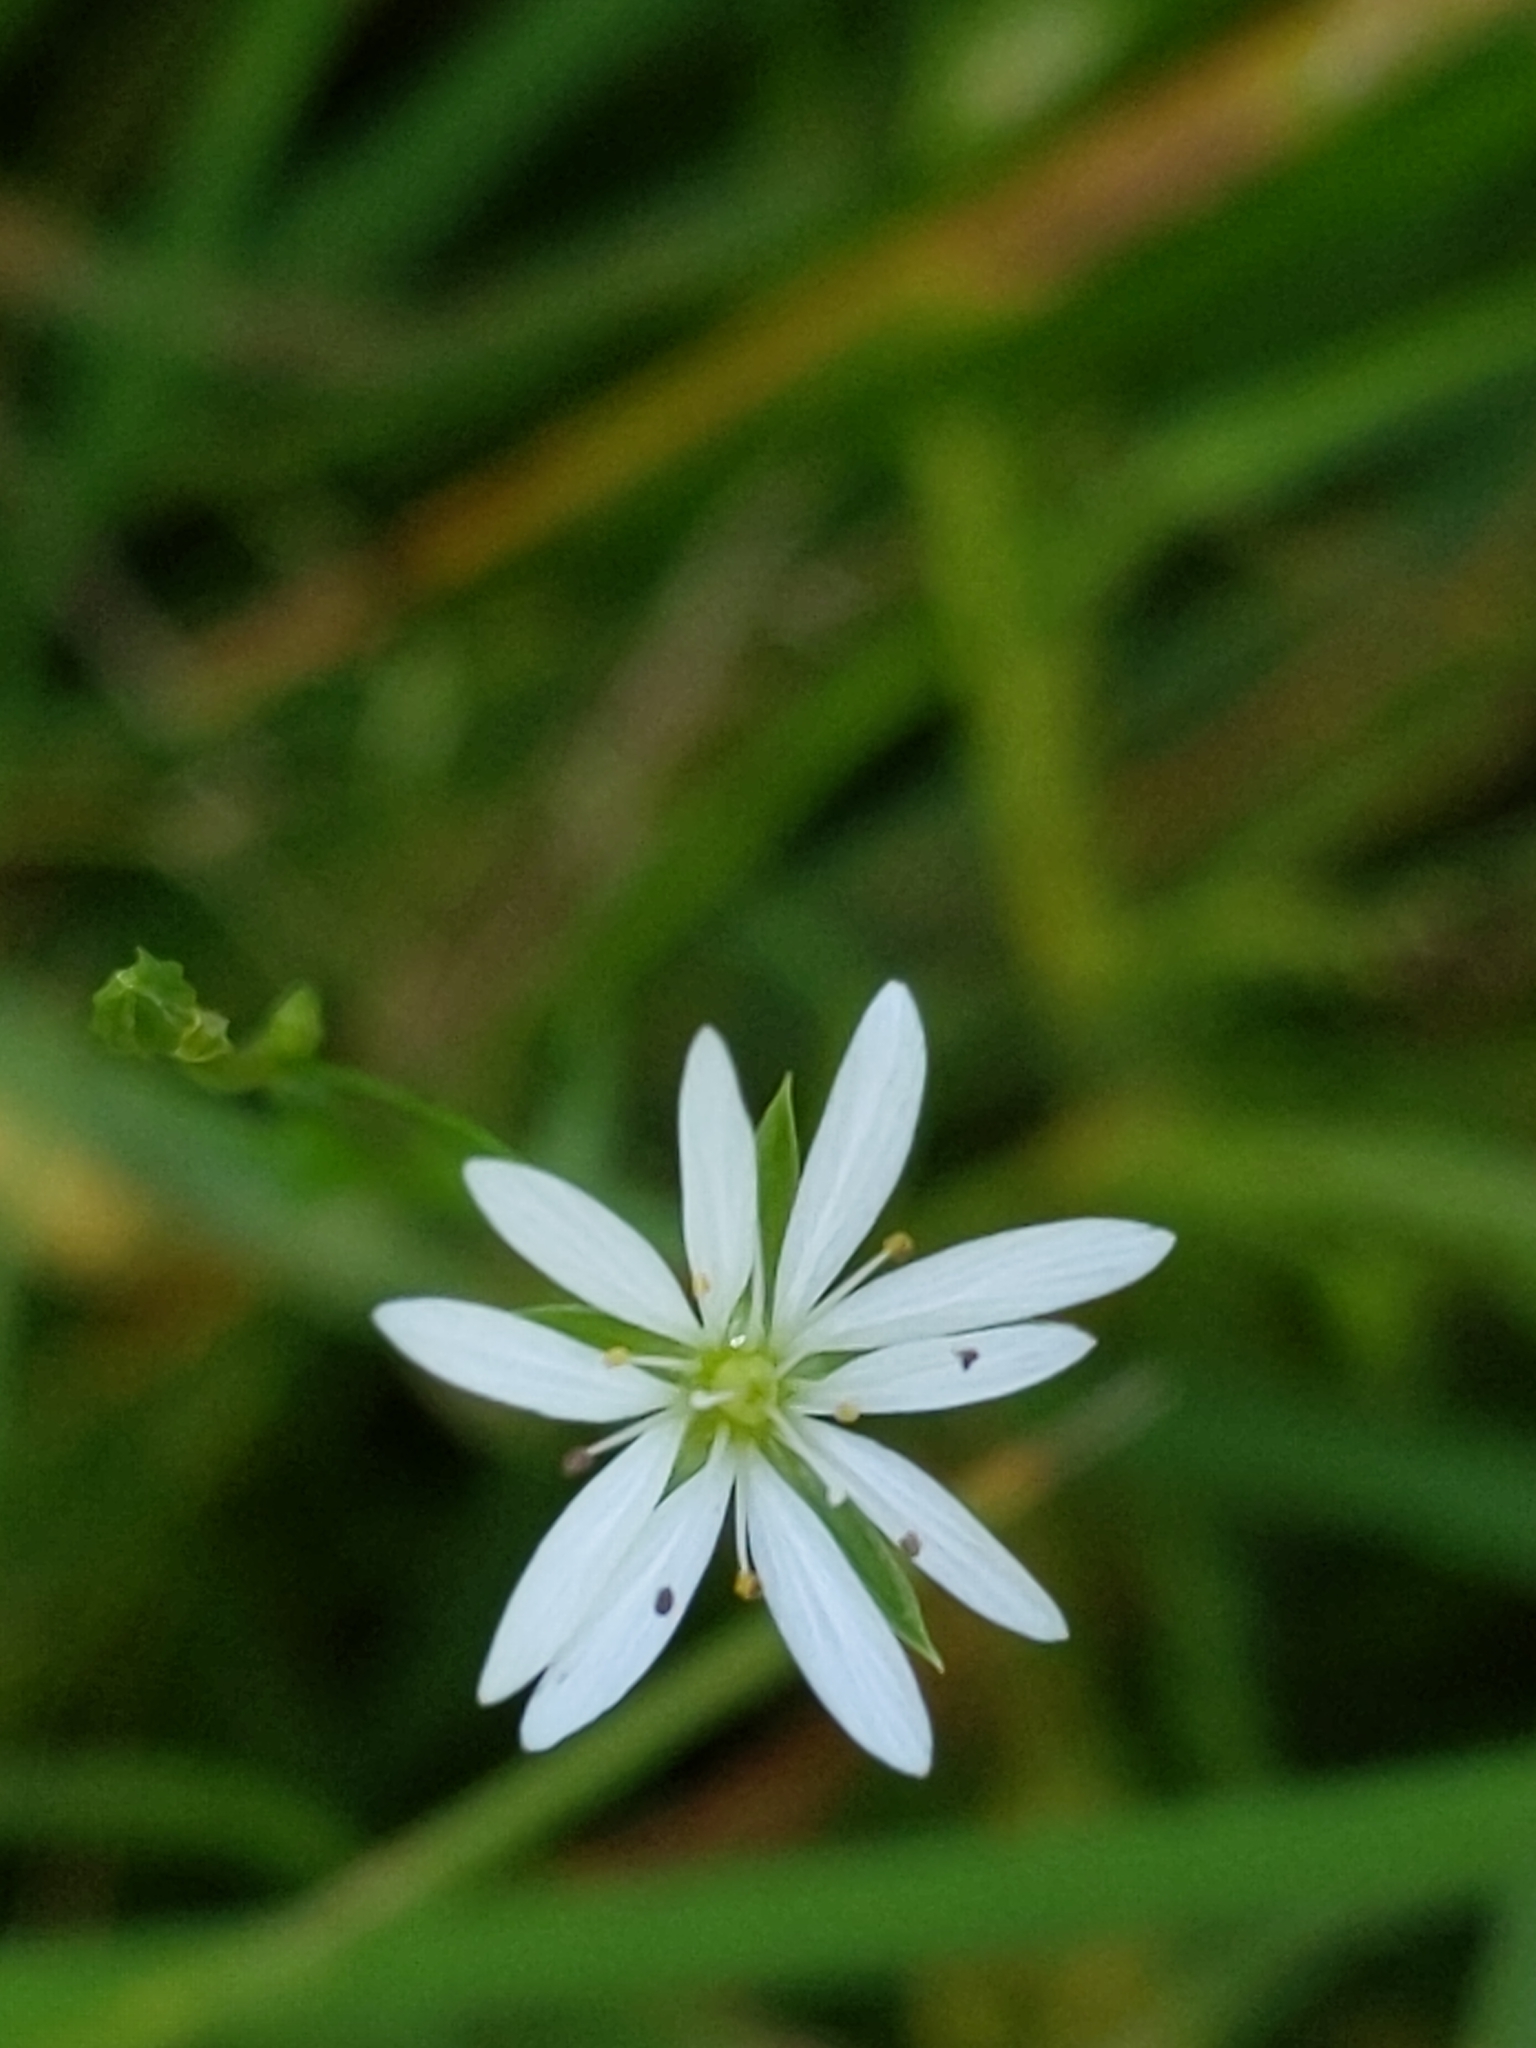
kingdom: Plantae
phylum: Tracheophyta
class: Magnoliopsida
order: Caryophyllales
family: Caryophyllaceae
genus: Stellaria
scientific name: Stellaria graminea
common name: Grass-like starwort
